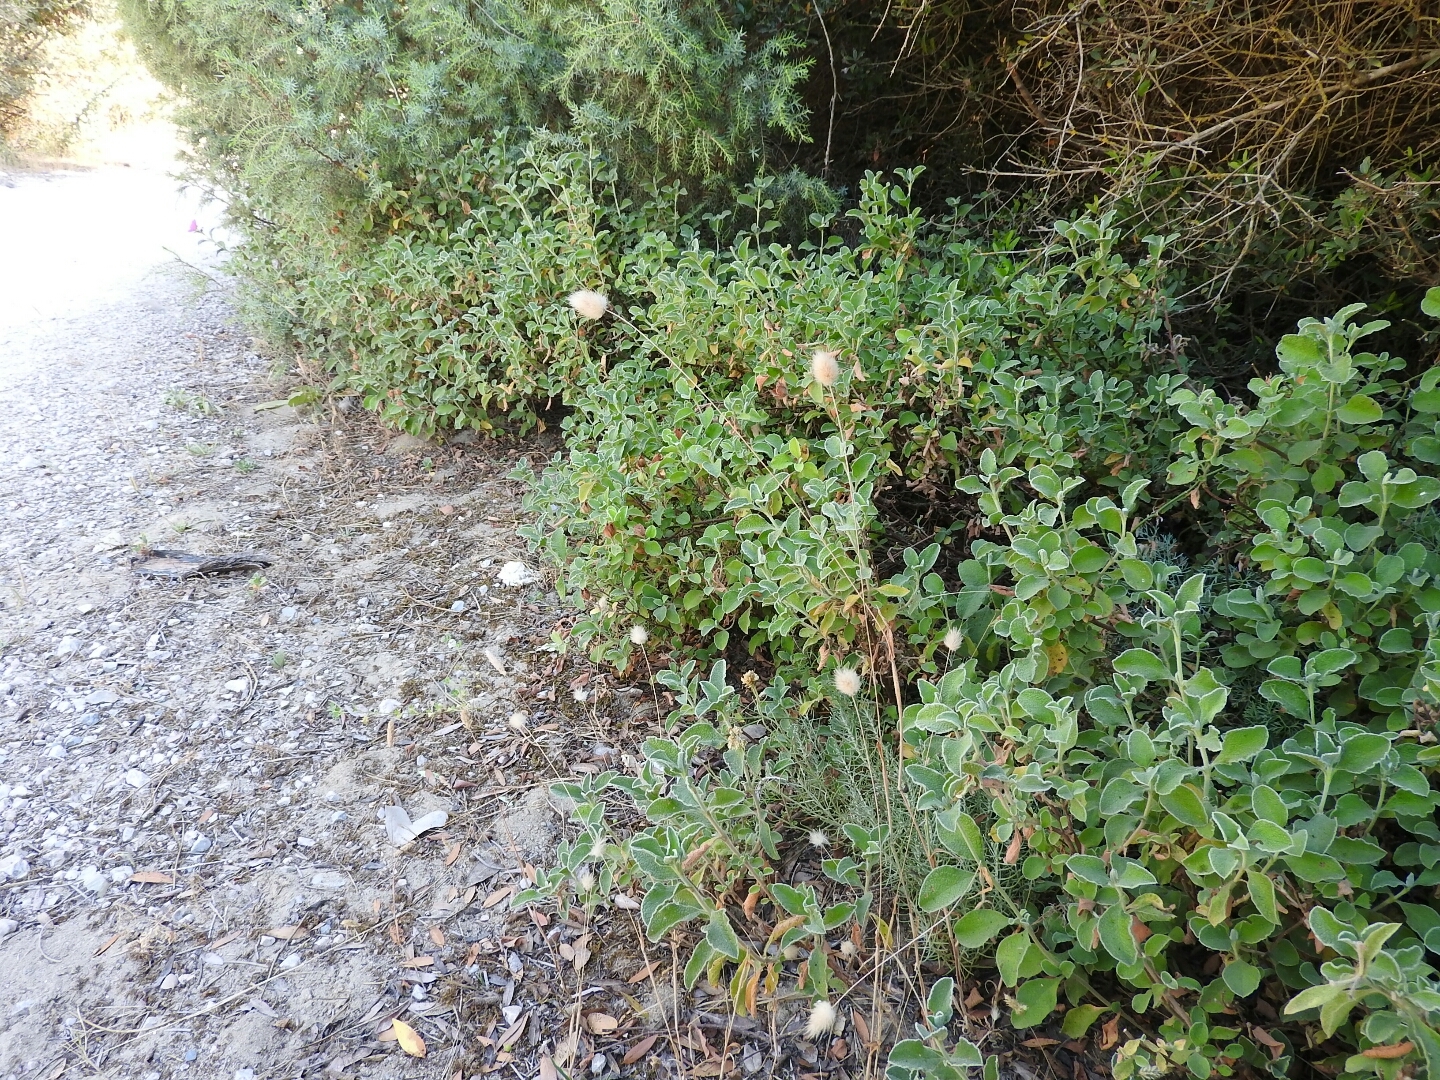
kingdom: Plantae
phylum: Tracheophyta
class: Liliopsida
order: Poales
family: Poaceae
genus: Lagurus
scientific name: Lagurus ovatus
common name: Hare's-tail
